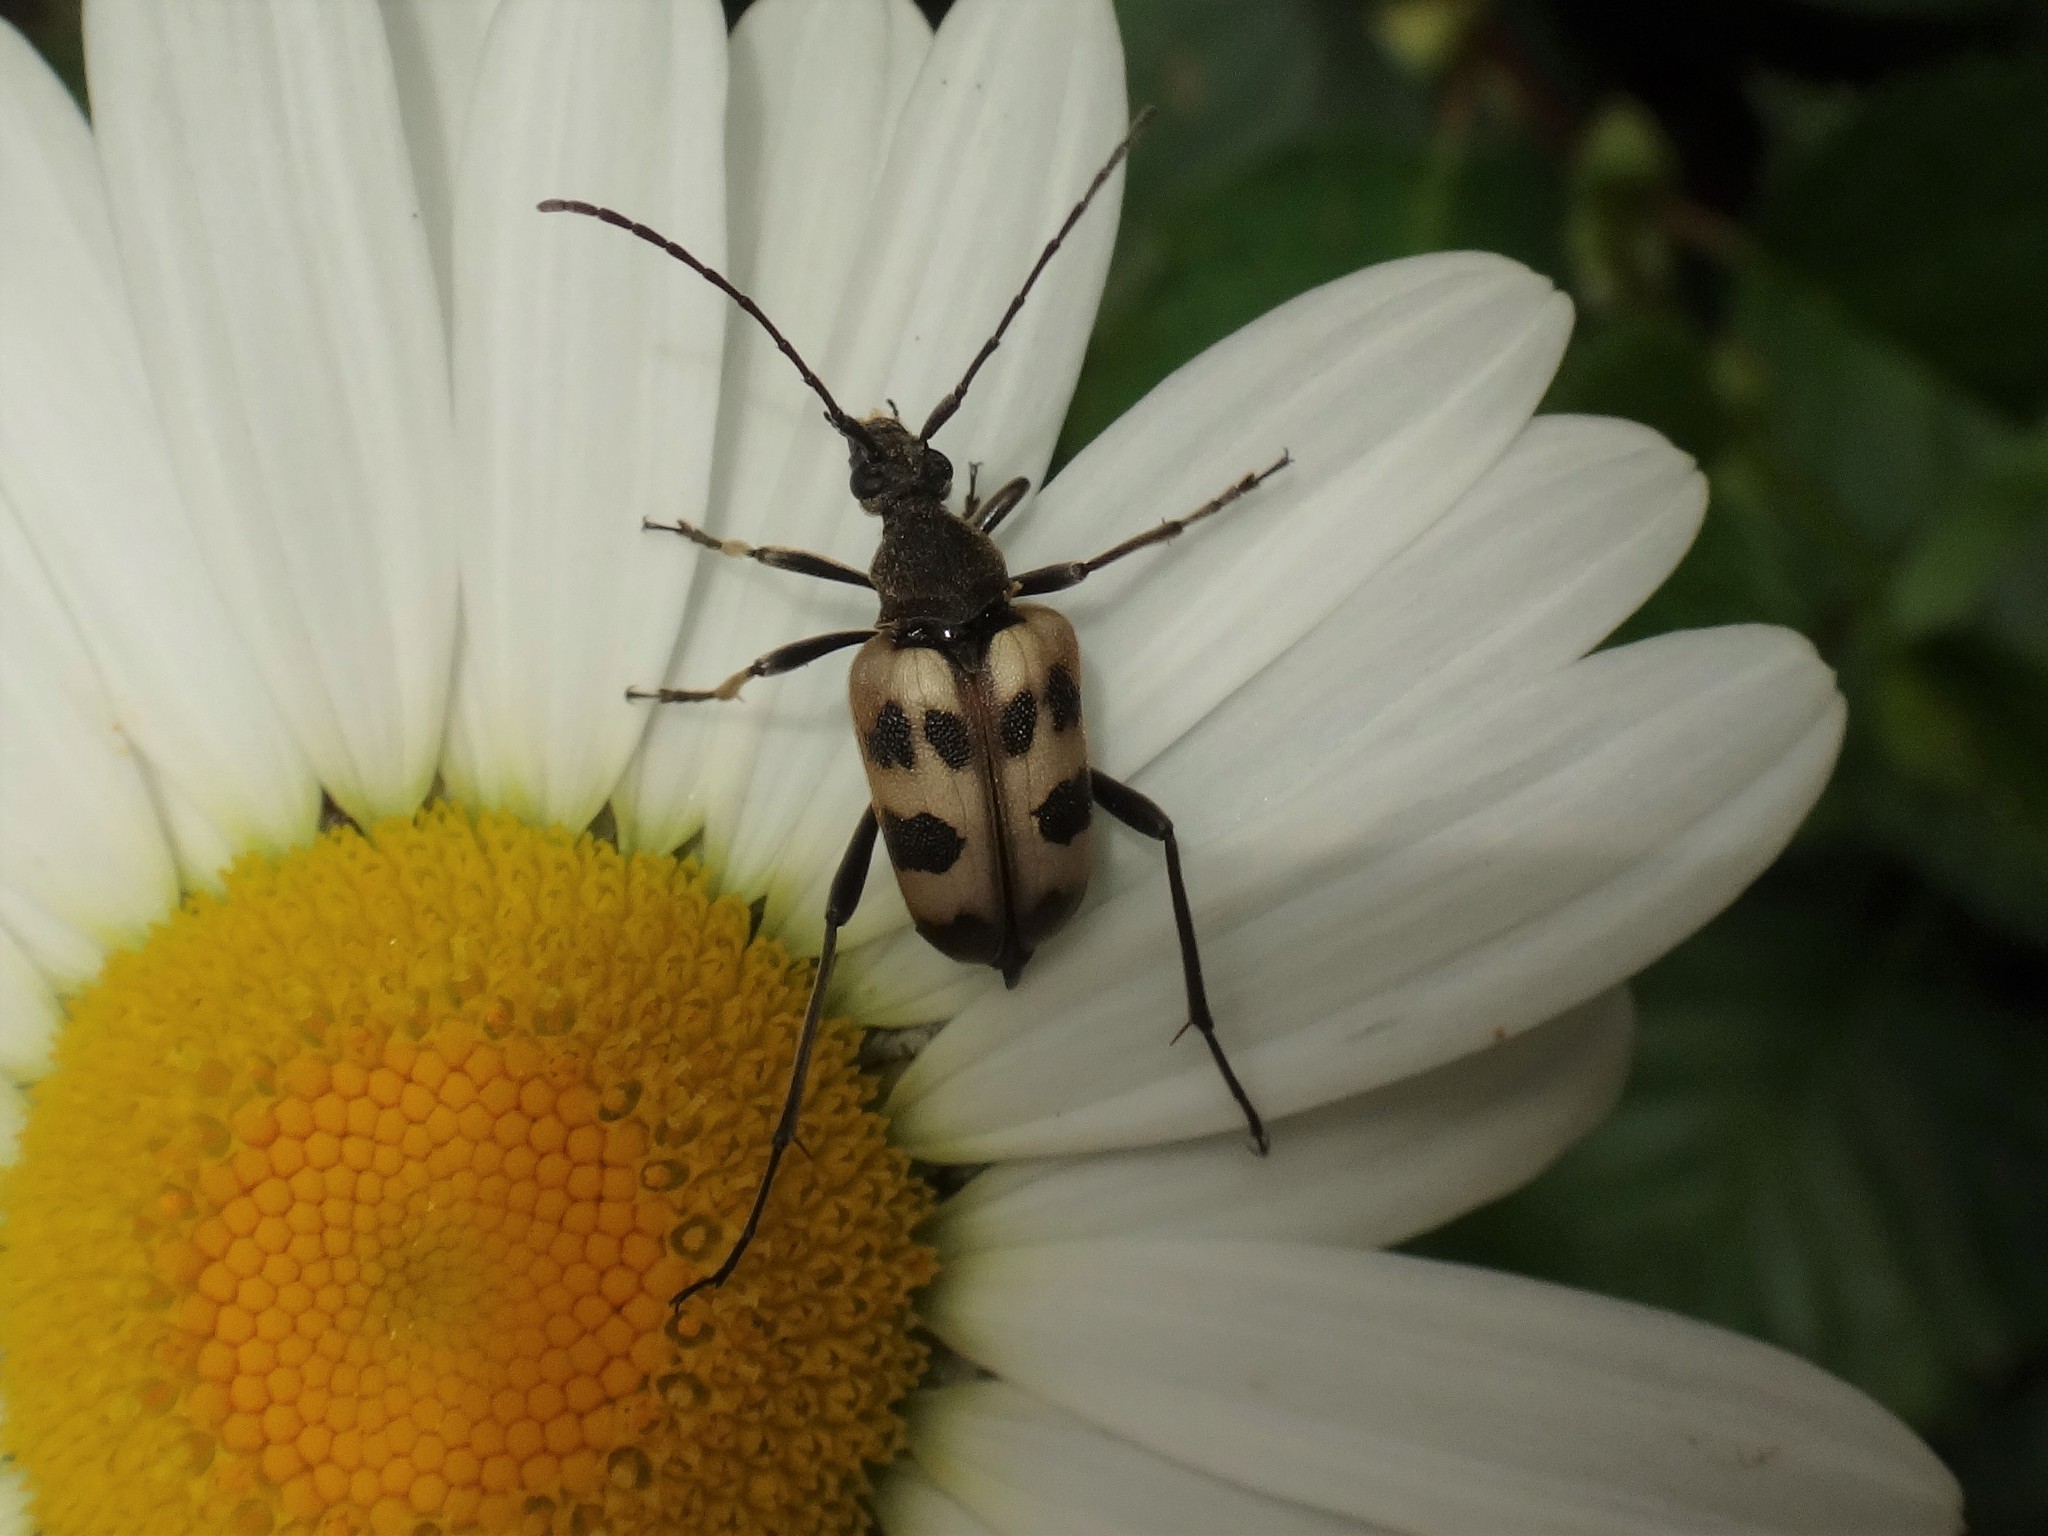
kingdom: Animalia
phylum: Arthropoda
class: Insecta
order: Coleoptera
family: Cerambycidae
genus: Pachytodes
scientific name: Pachytodes cerambyciformis
